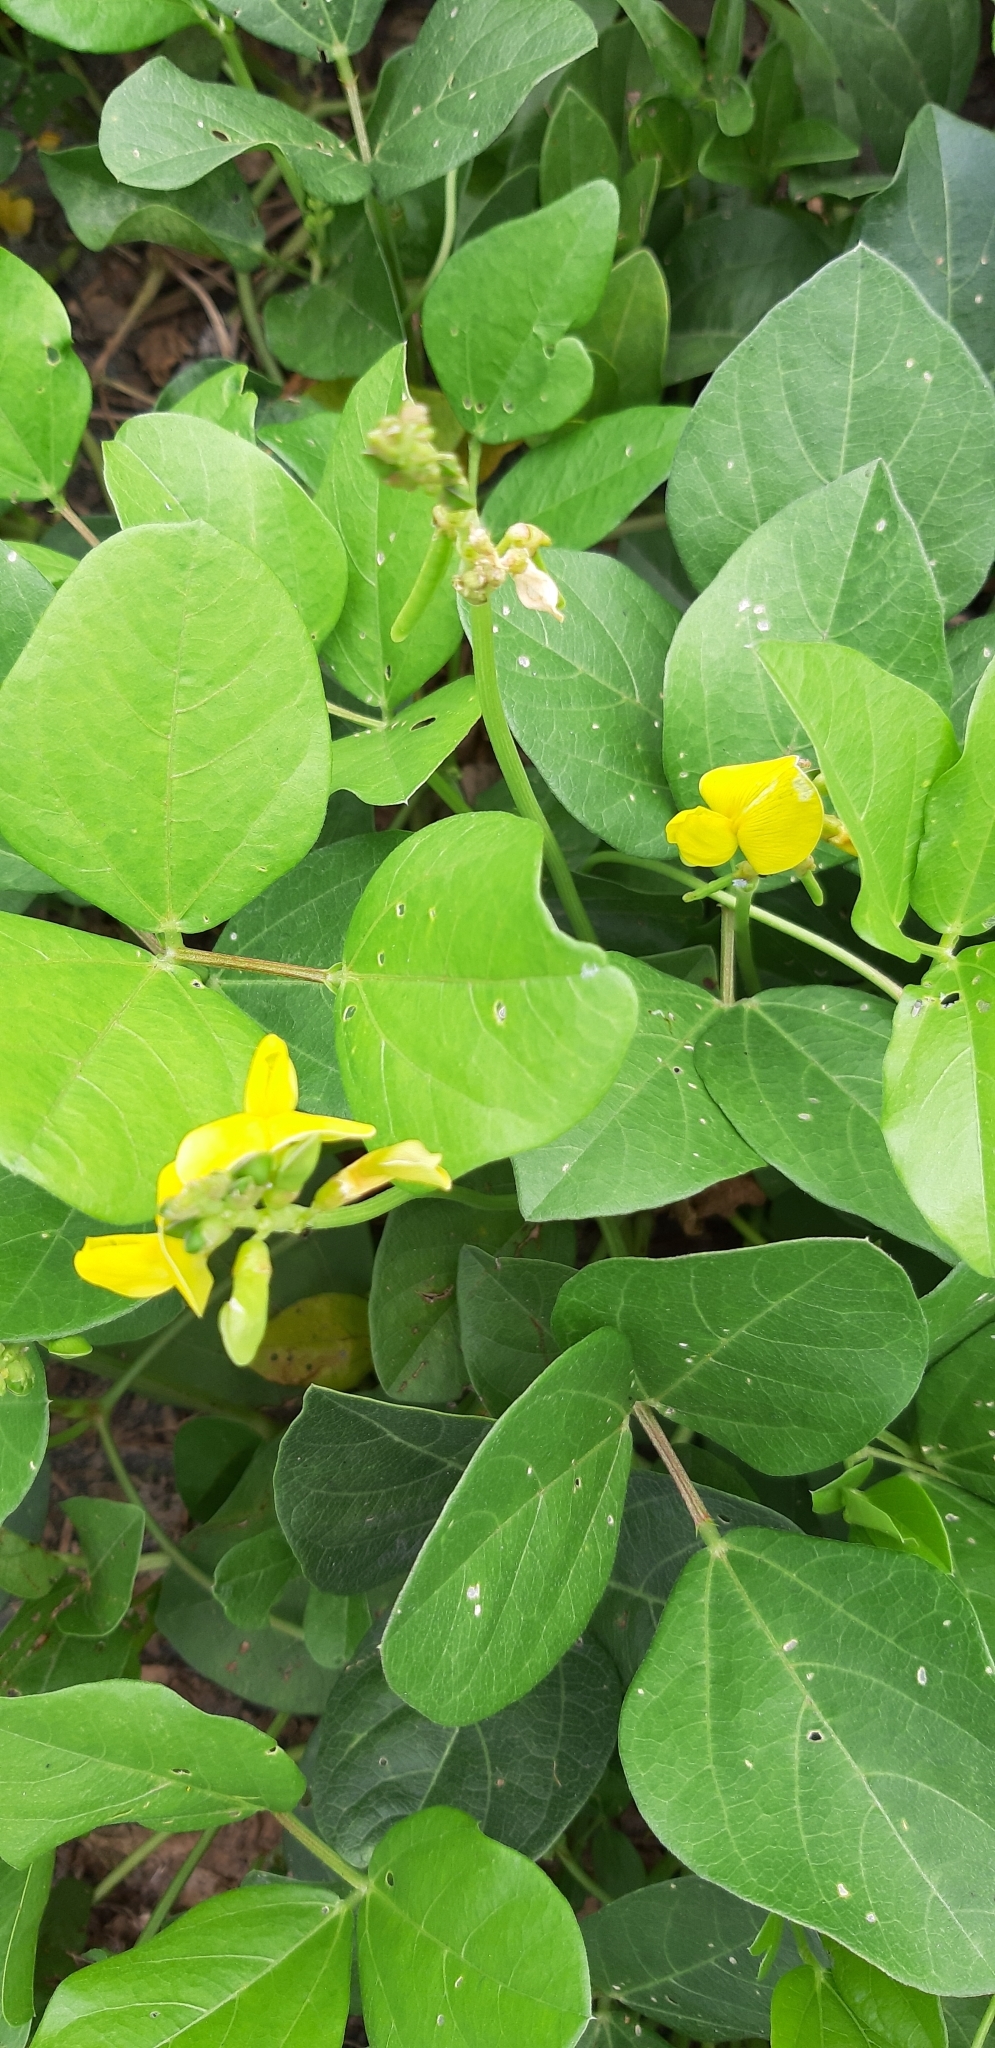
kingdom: Plantae
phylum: Tracheophyta
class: Magnoliopsida
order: Fabales
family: Fabaceae
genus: Vigna
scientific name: Vigna marina
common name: Dune-bean
